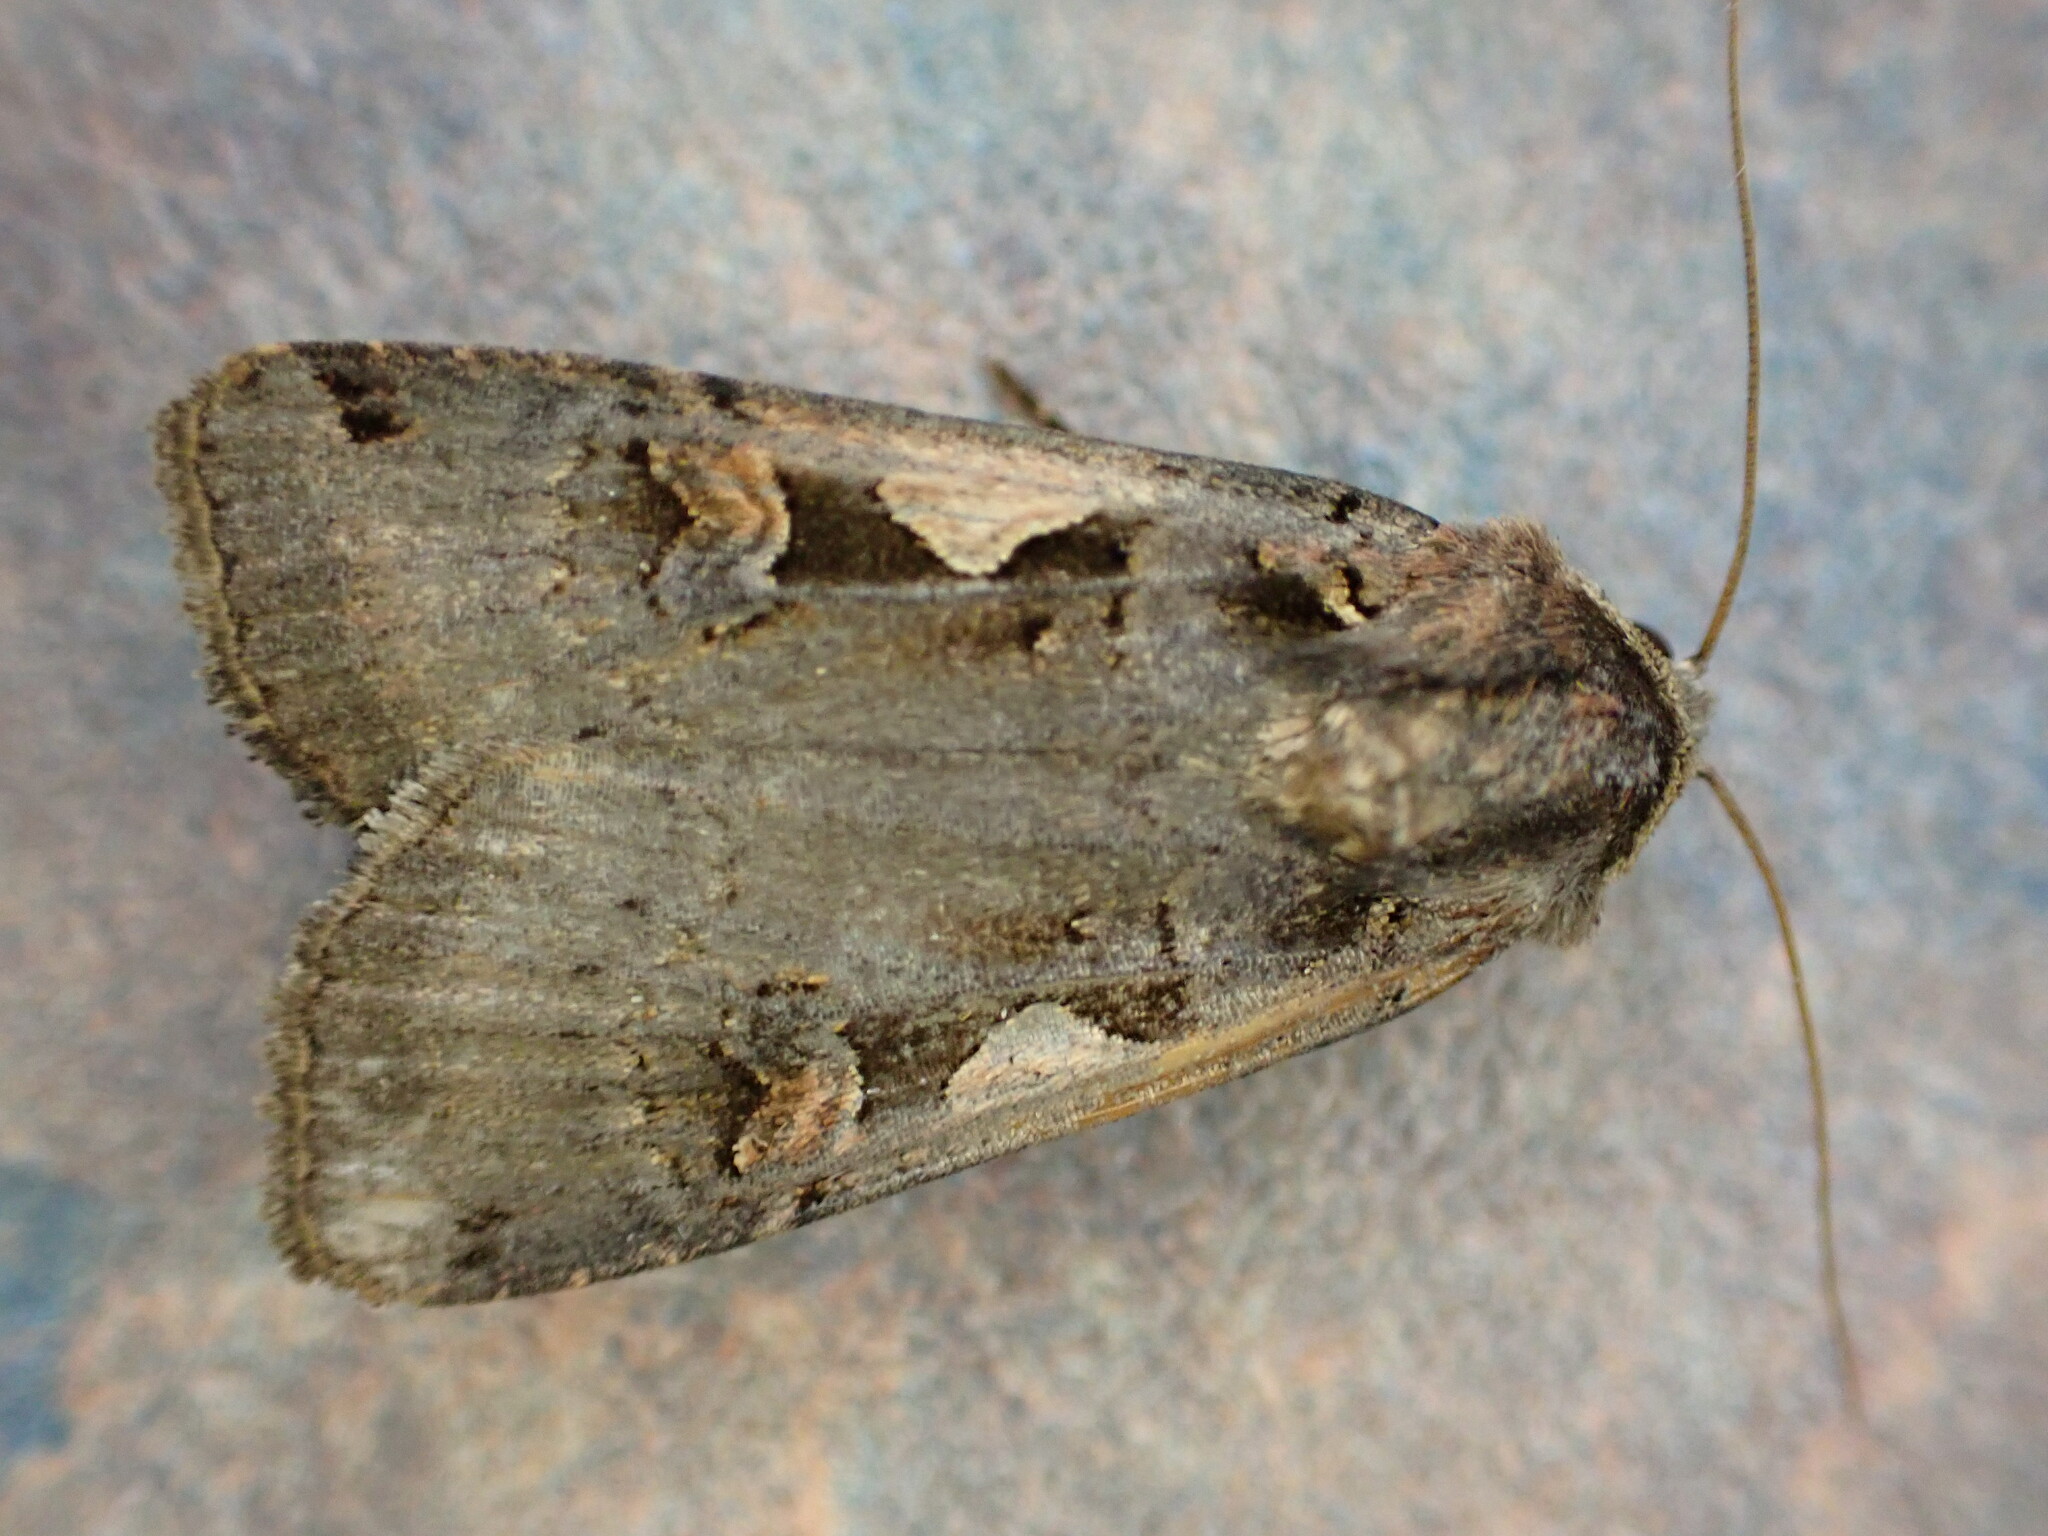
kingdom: Animalia
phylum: Arthropoda
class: Insecta
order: Lepidoptera
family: Noctuidae
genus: Xestia
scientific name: Xestia c-nigrum
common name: Setaceous hebrew character
